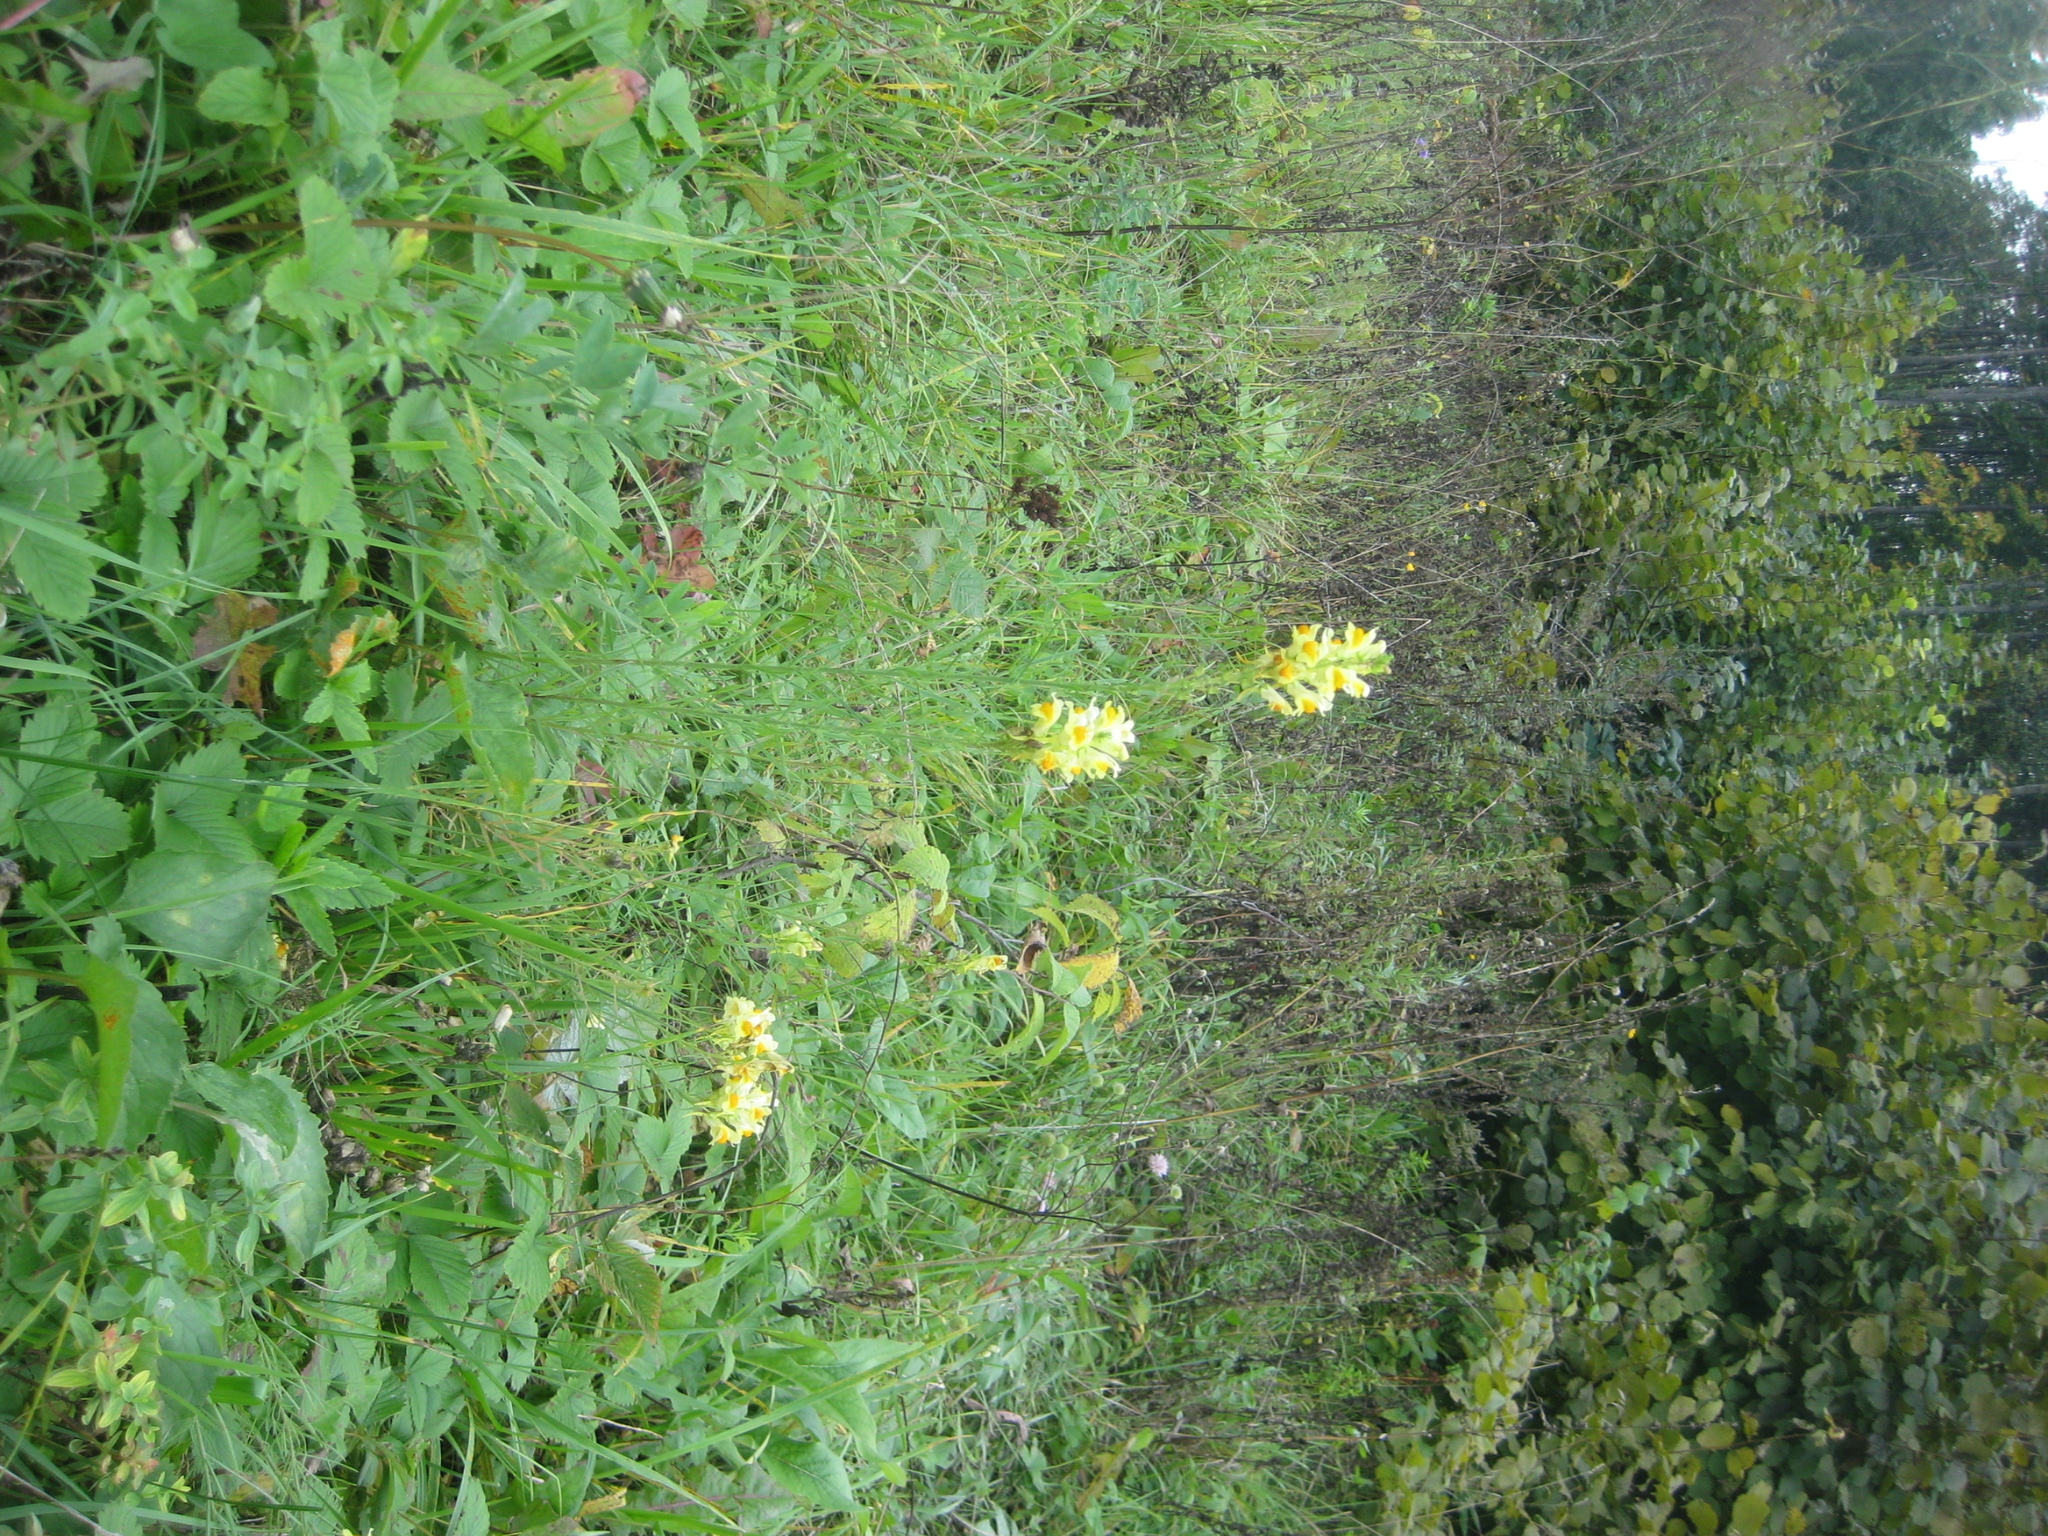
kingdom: Plantae
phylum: Tracheophyta
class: Magnoliopsida
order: Lamiales
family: Plantaginaceae
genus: Linaria
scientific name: Linaria vulgaris
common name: Butter and eggs
